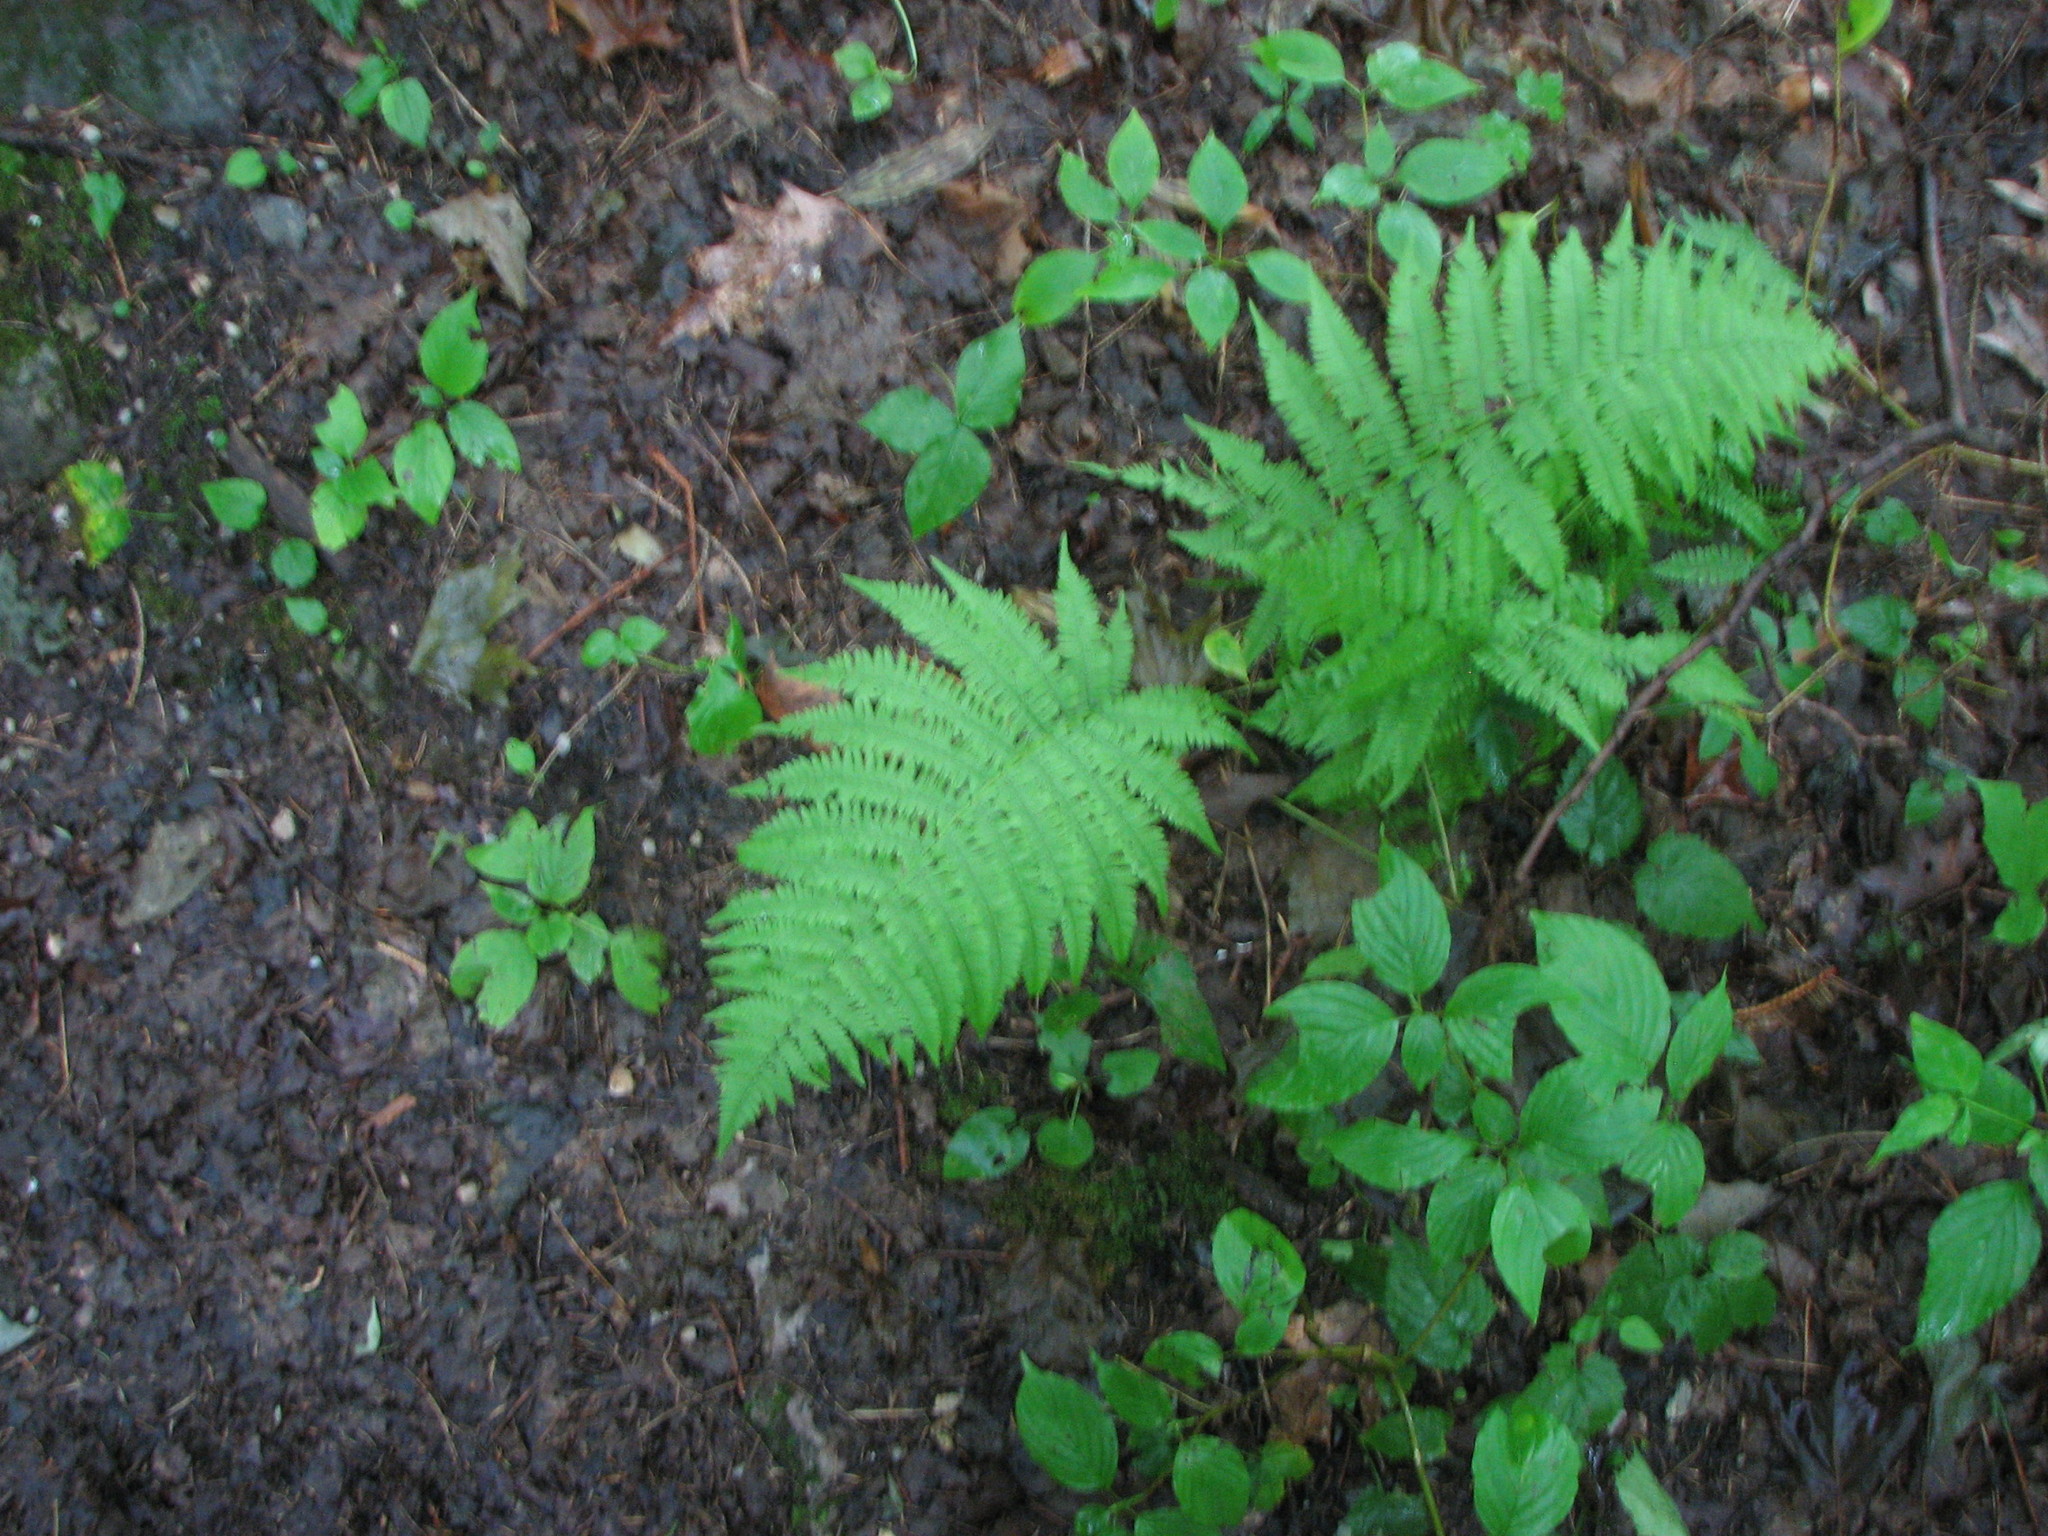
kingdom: Plantae
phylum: Tracheophyta
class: Polypodiopsida
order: Polypodiales
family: Athyriaceae
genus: Athyrium
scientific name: Athyrium angustum
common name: Northern lady fern
